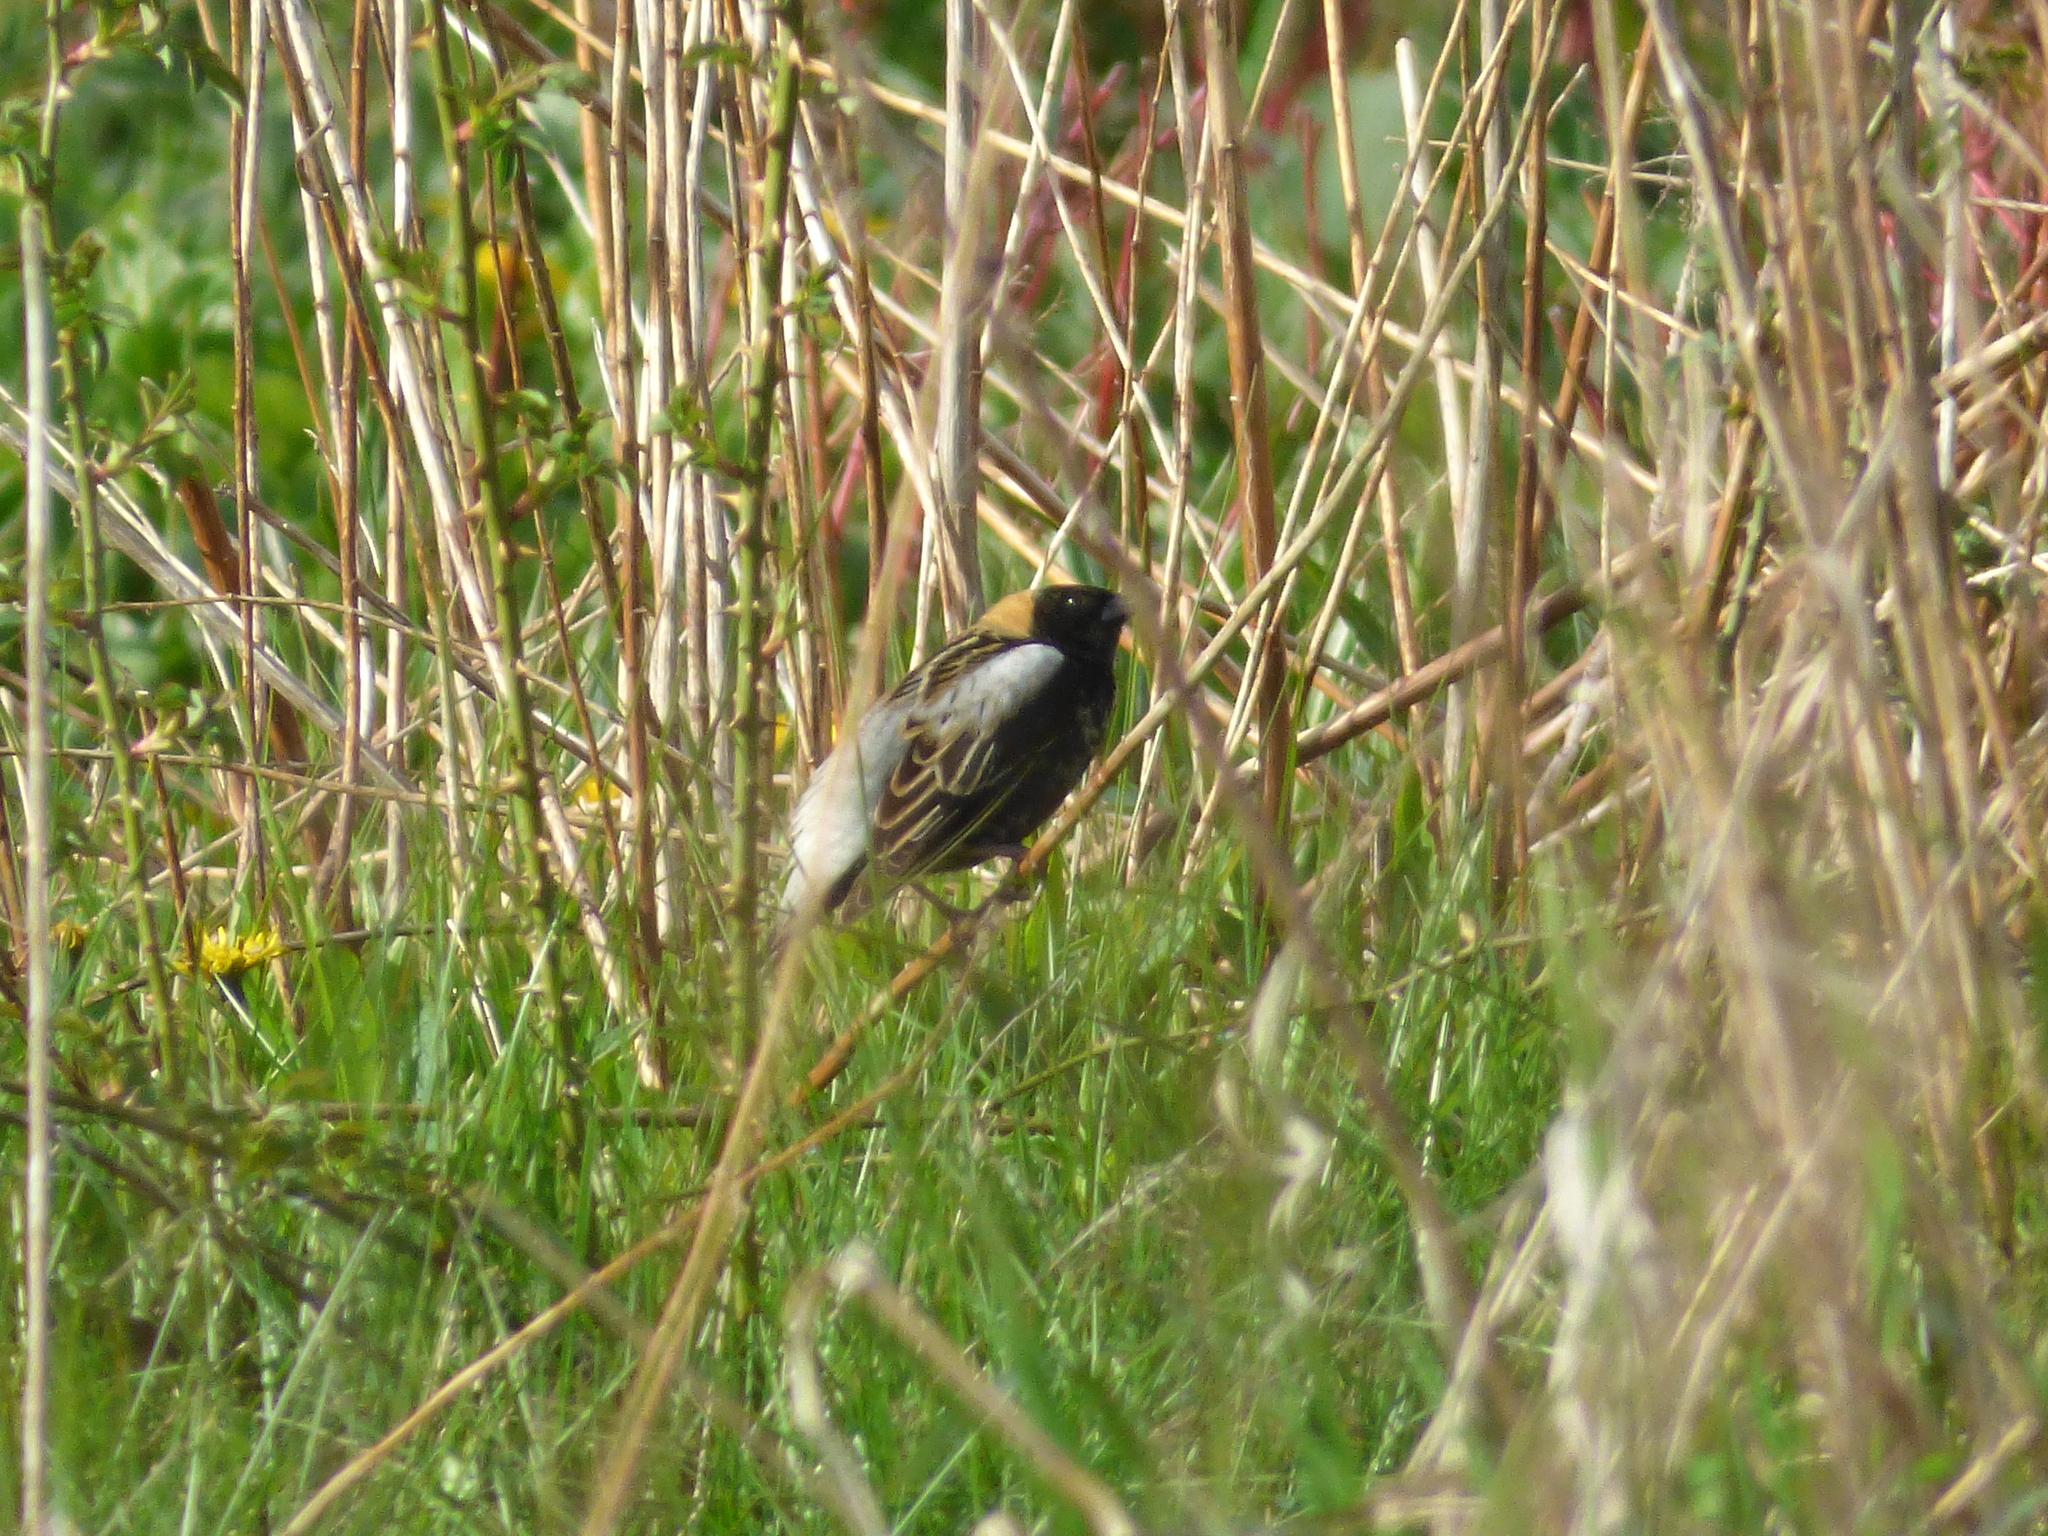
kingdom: Animalia
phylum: Chordata
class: Aves
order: Passeriformes
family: Icteridae
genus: Dolichonyx
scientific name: Dolichonyx oryzivorus
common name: Bobolink
